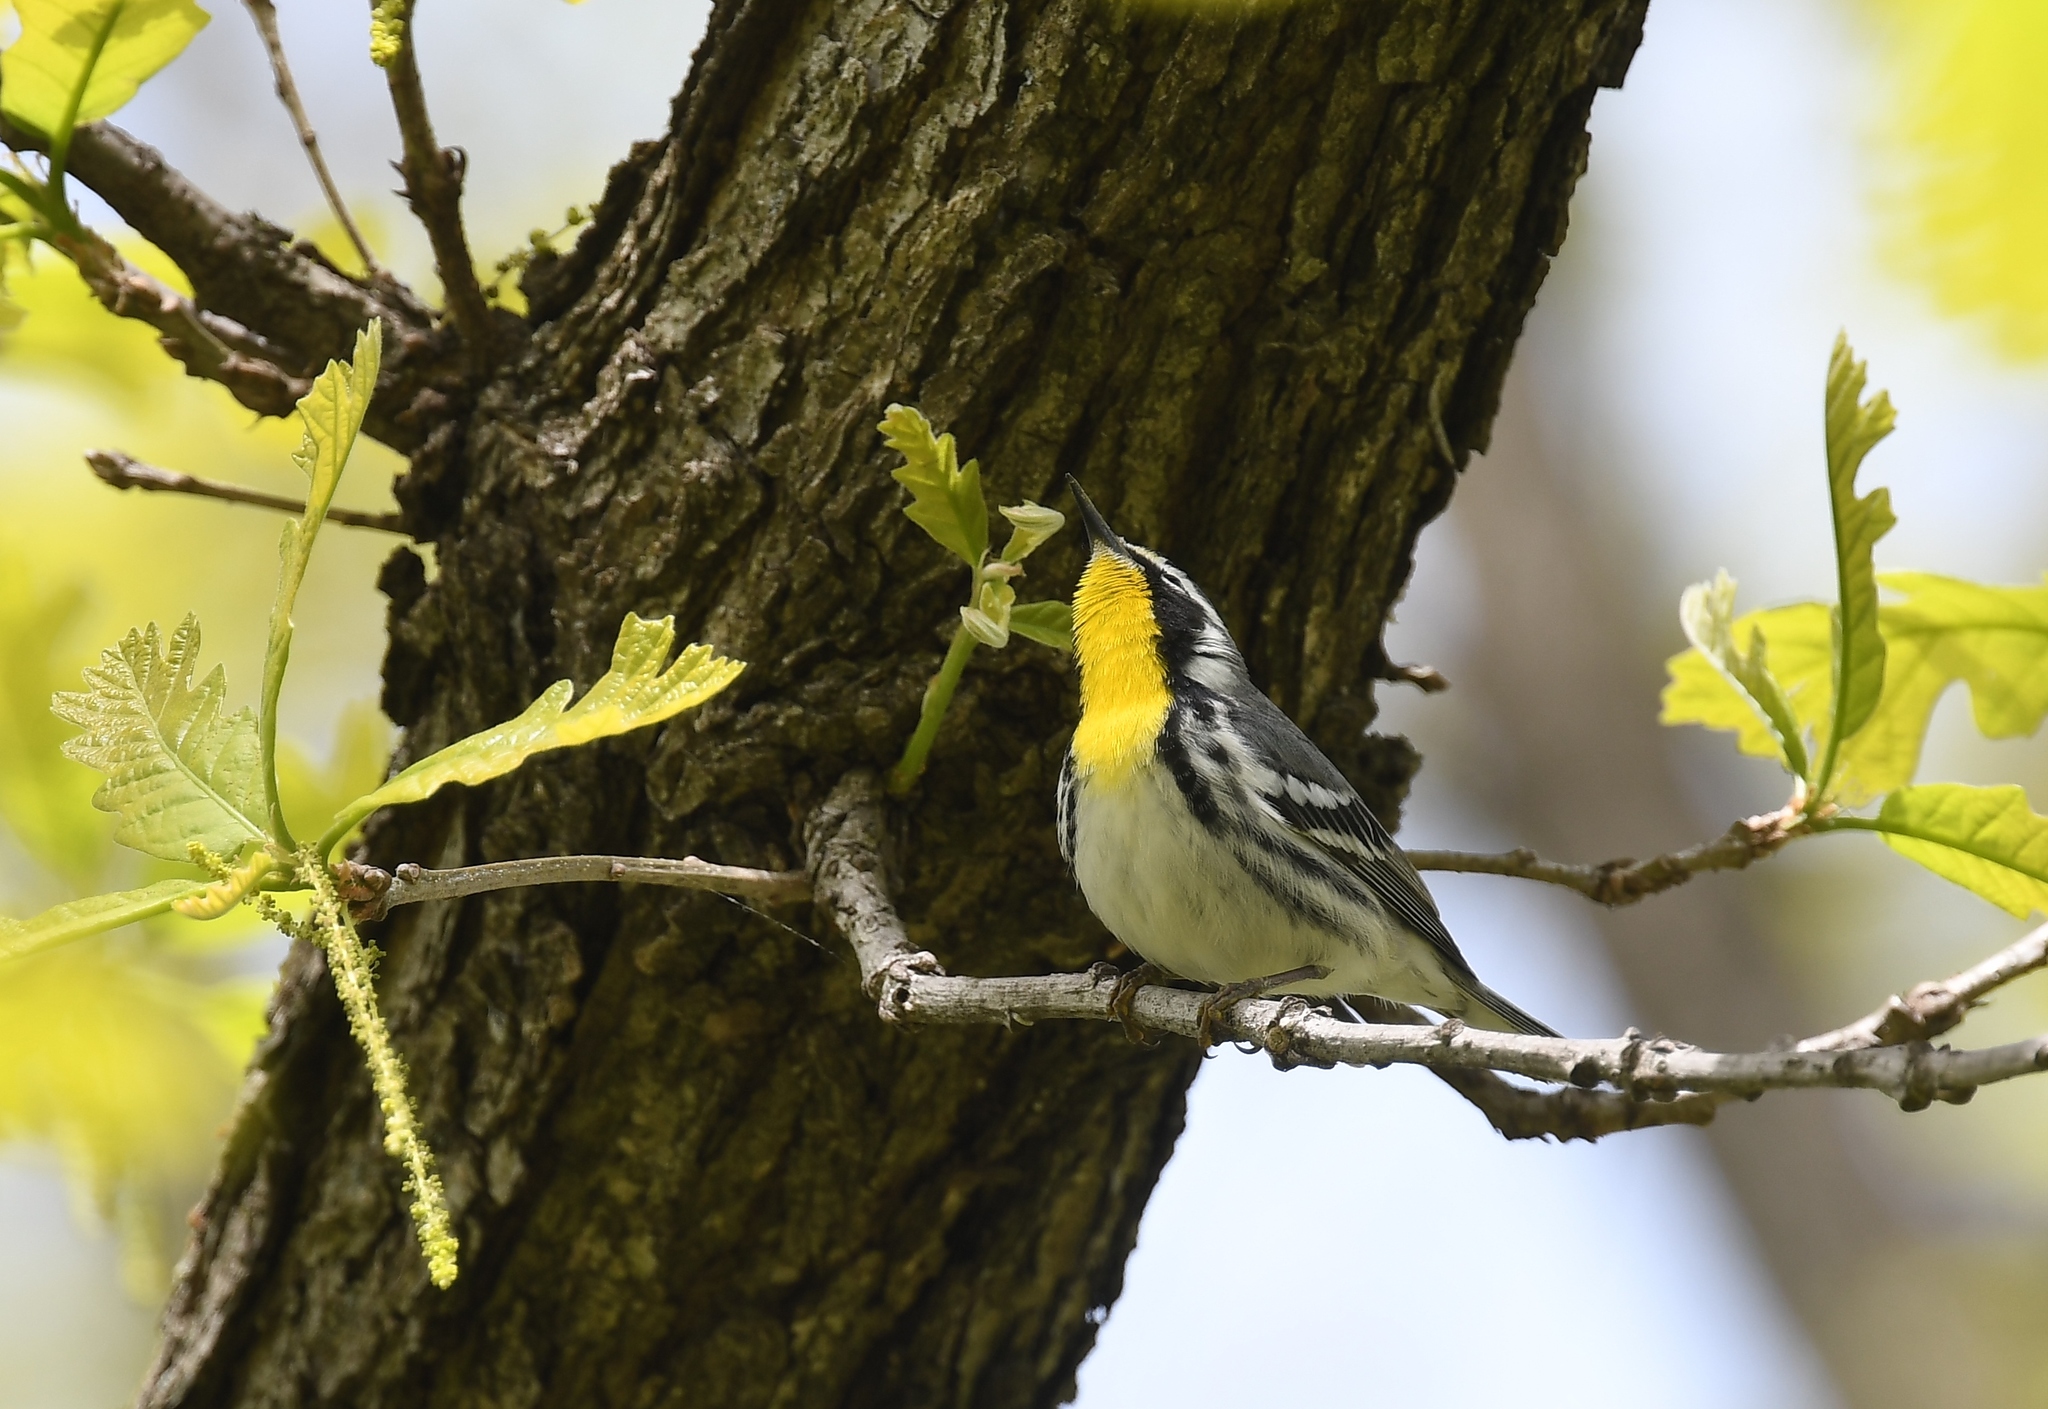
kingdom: Animalia
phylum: Chordata
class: Aves
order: Passeriformes
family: Parulidae
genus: Setophaga
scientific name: Setophaga dominica
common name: Yellow-throated warbler
